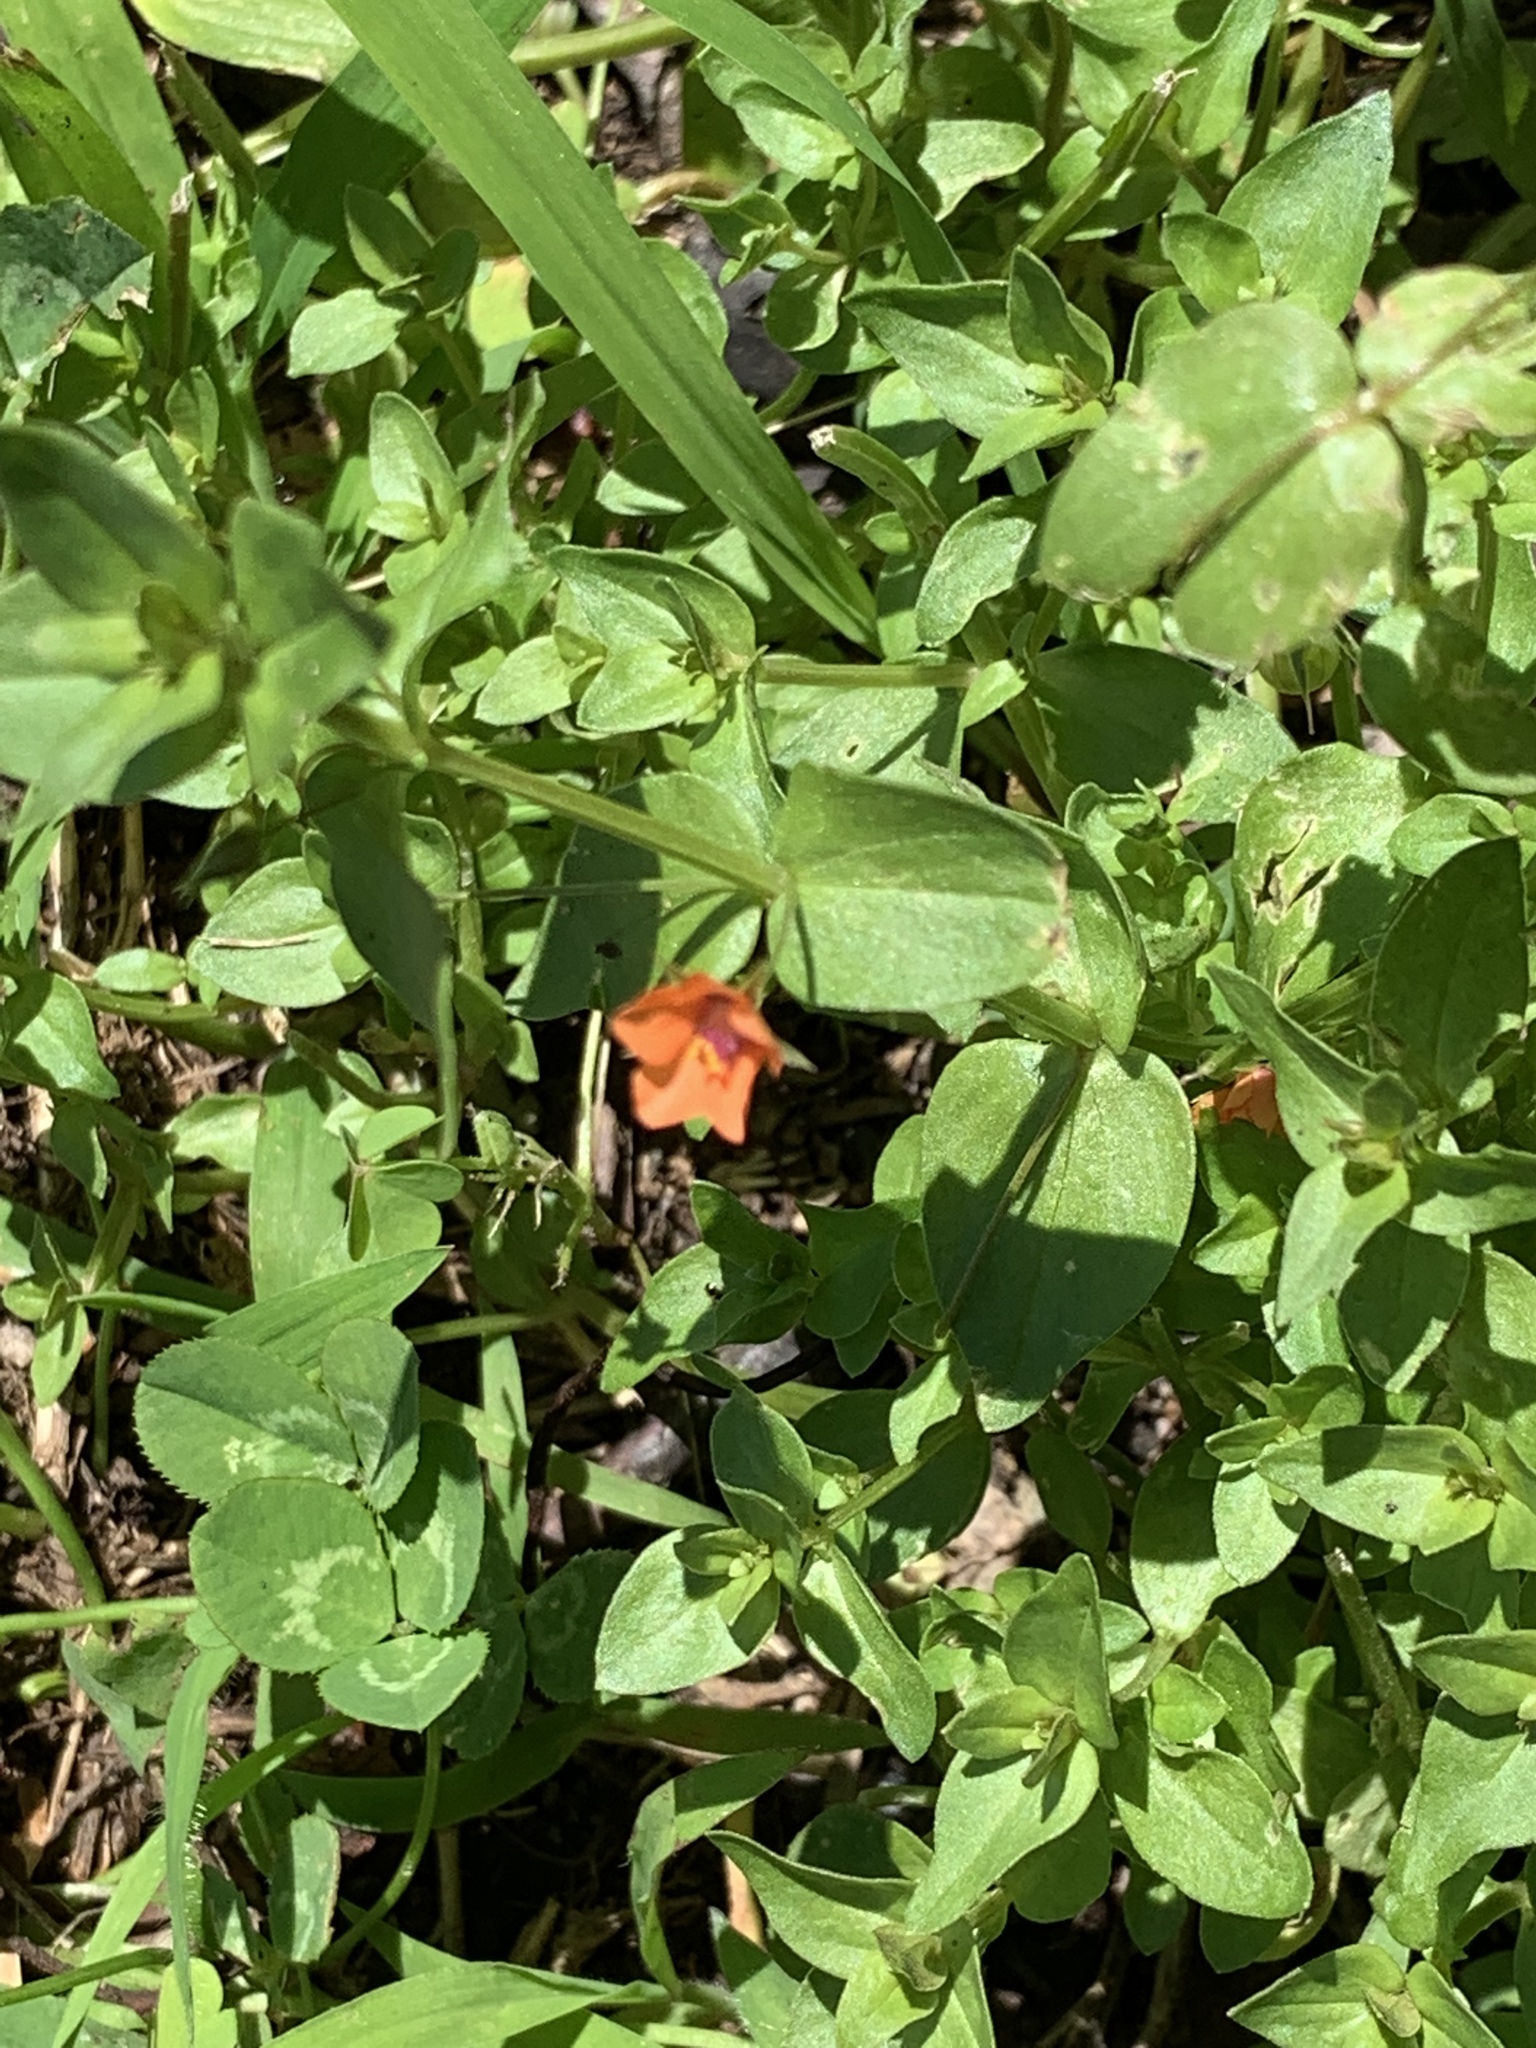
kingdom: Plantae
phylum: Tracheophyta
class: Magnoliopsida
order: Ericales
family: Primulaceae
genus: Lysimachia
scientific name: Lysimachia arvensis
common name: Scarlet pimpernel
